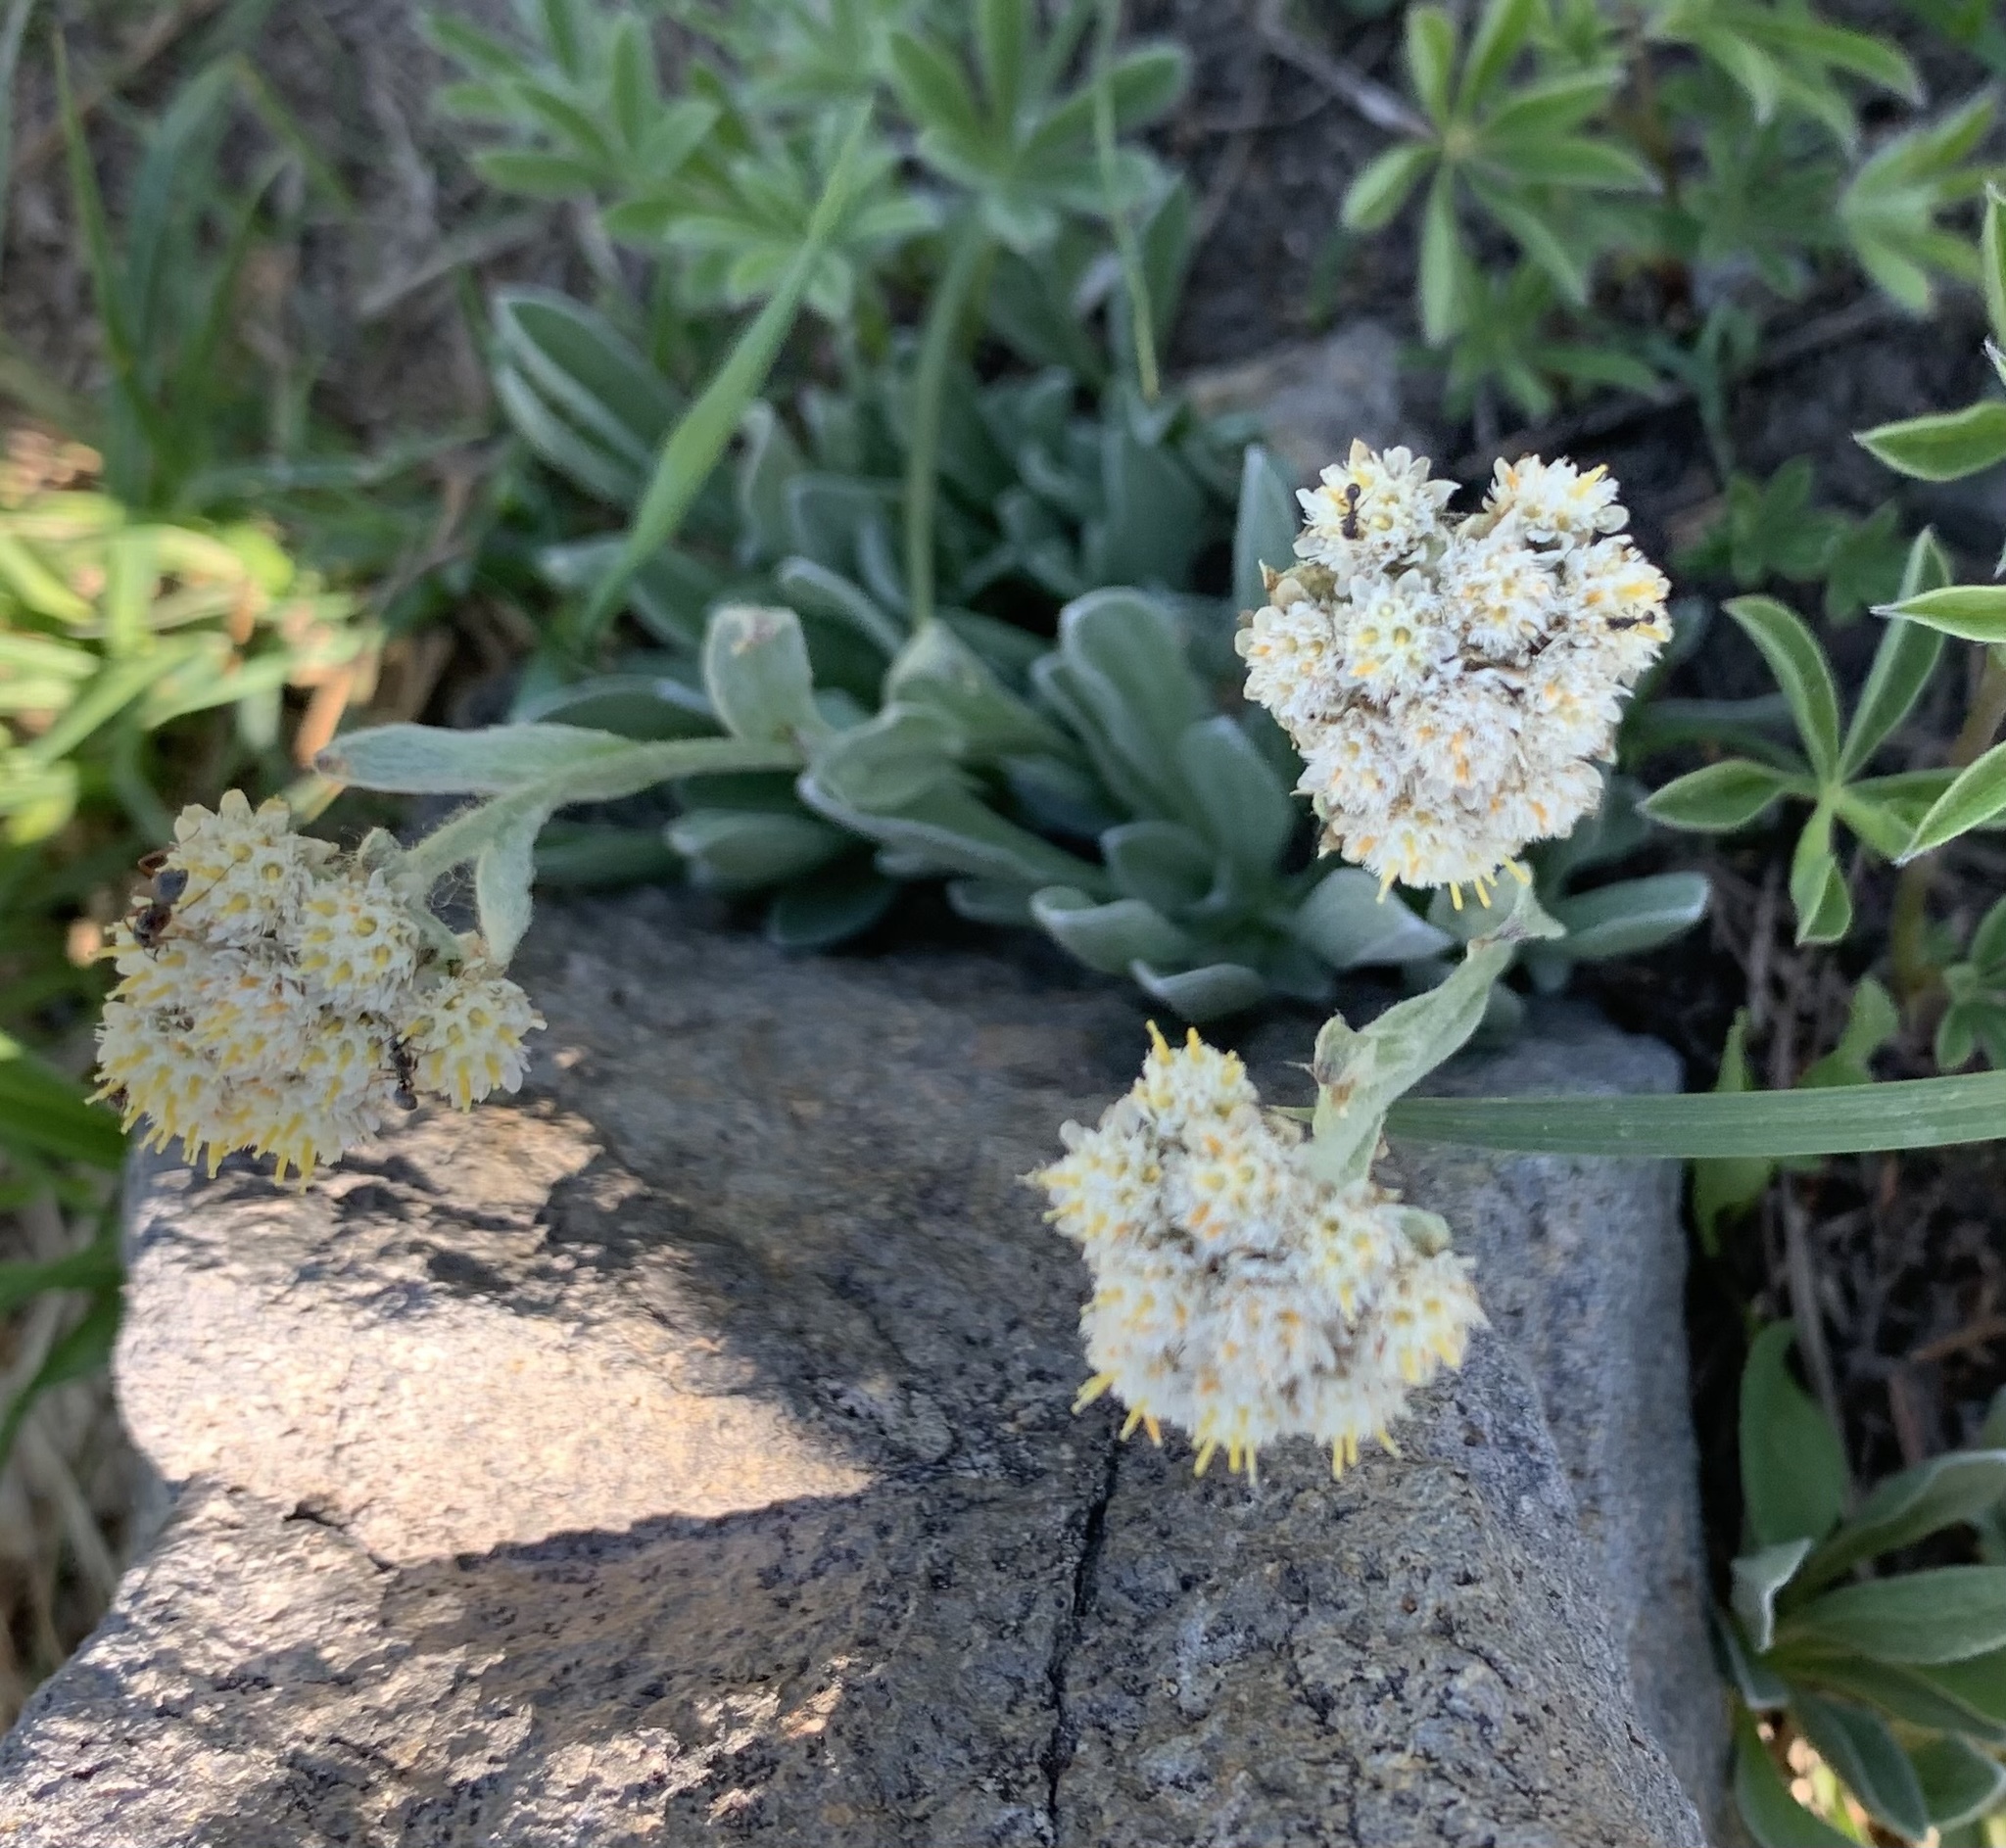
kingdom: Plantae
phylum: Tracheophyta
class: Magnoliopsida
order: Asterales
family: Asteraceae
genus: Antennaria
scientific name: Antennaria lanata
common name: Woolly pussytoes
